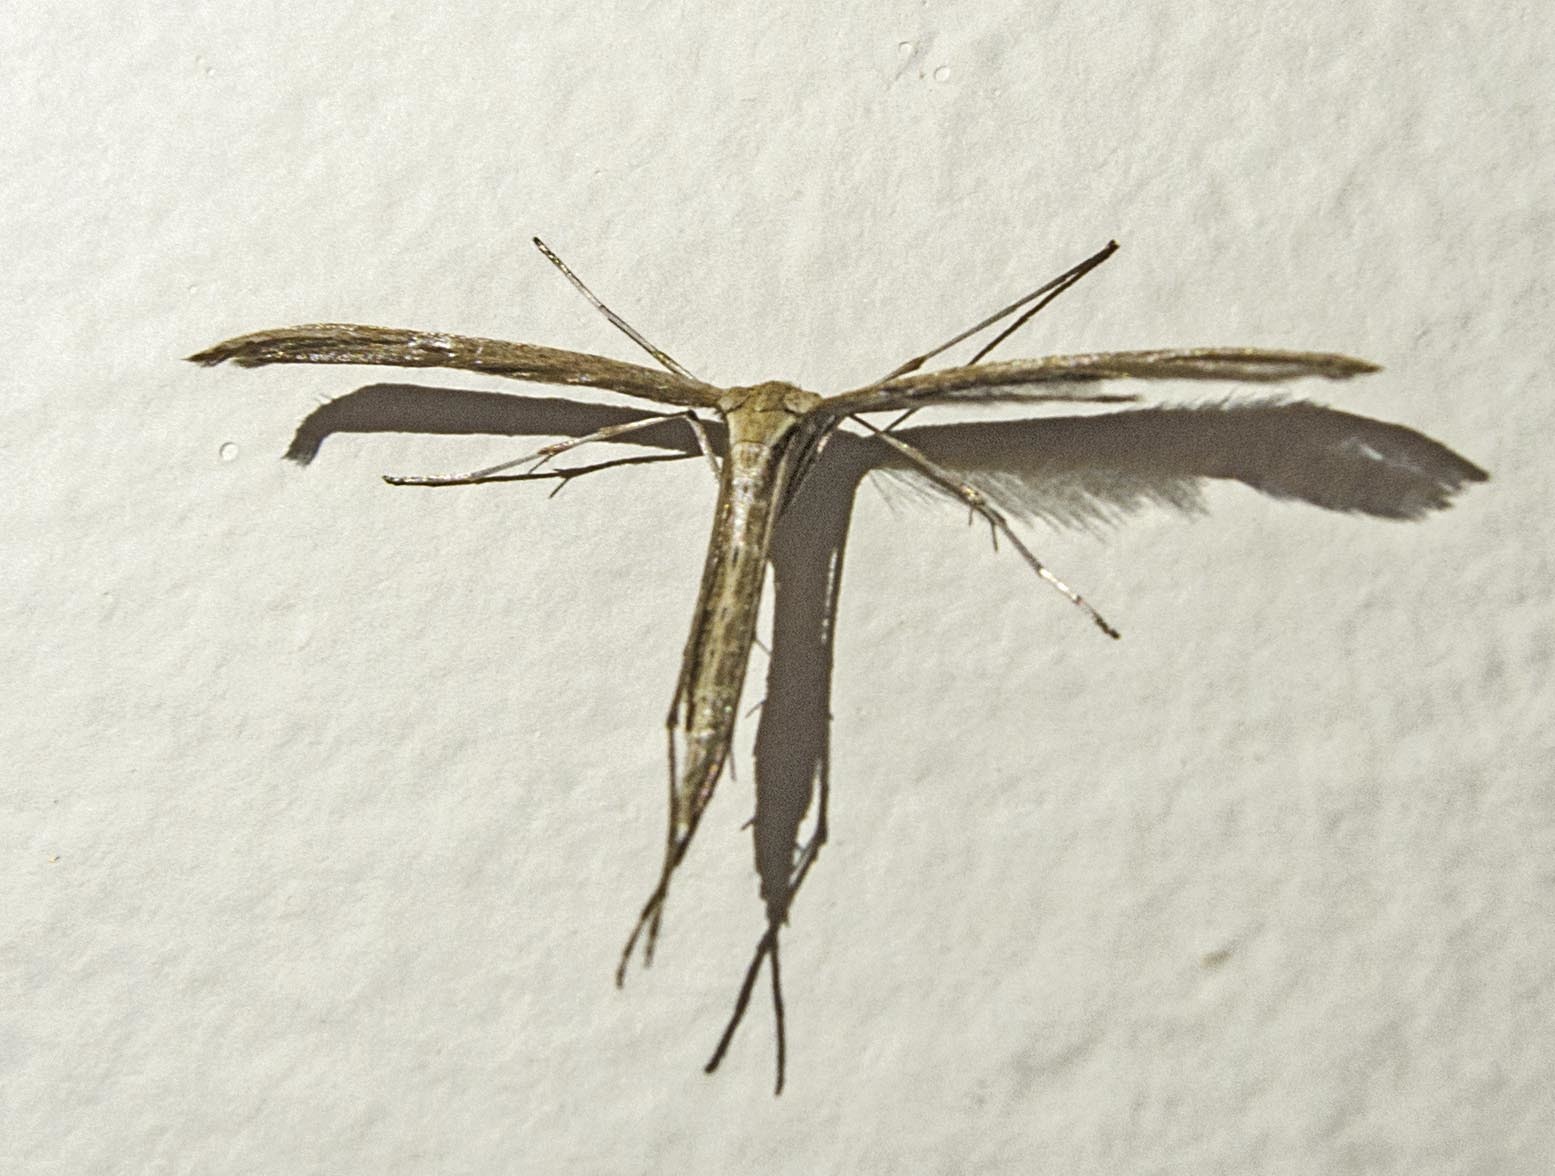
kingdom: Animalia
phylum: Arthropoda
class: Insecta
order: Lepidoptera
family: Pterophoridae
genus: Emmelina
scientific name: Emmelina monodactyla
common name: Common plume
